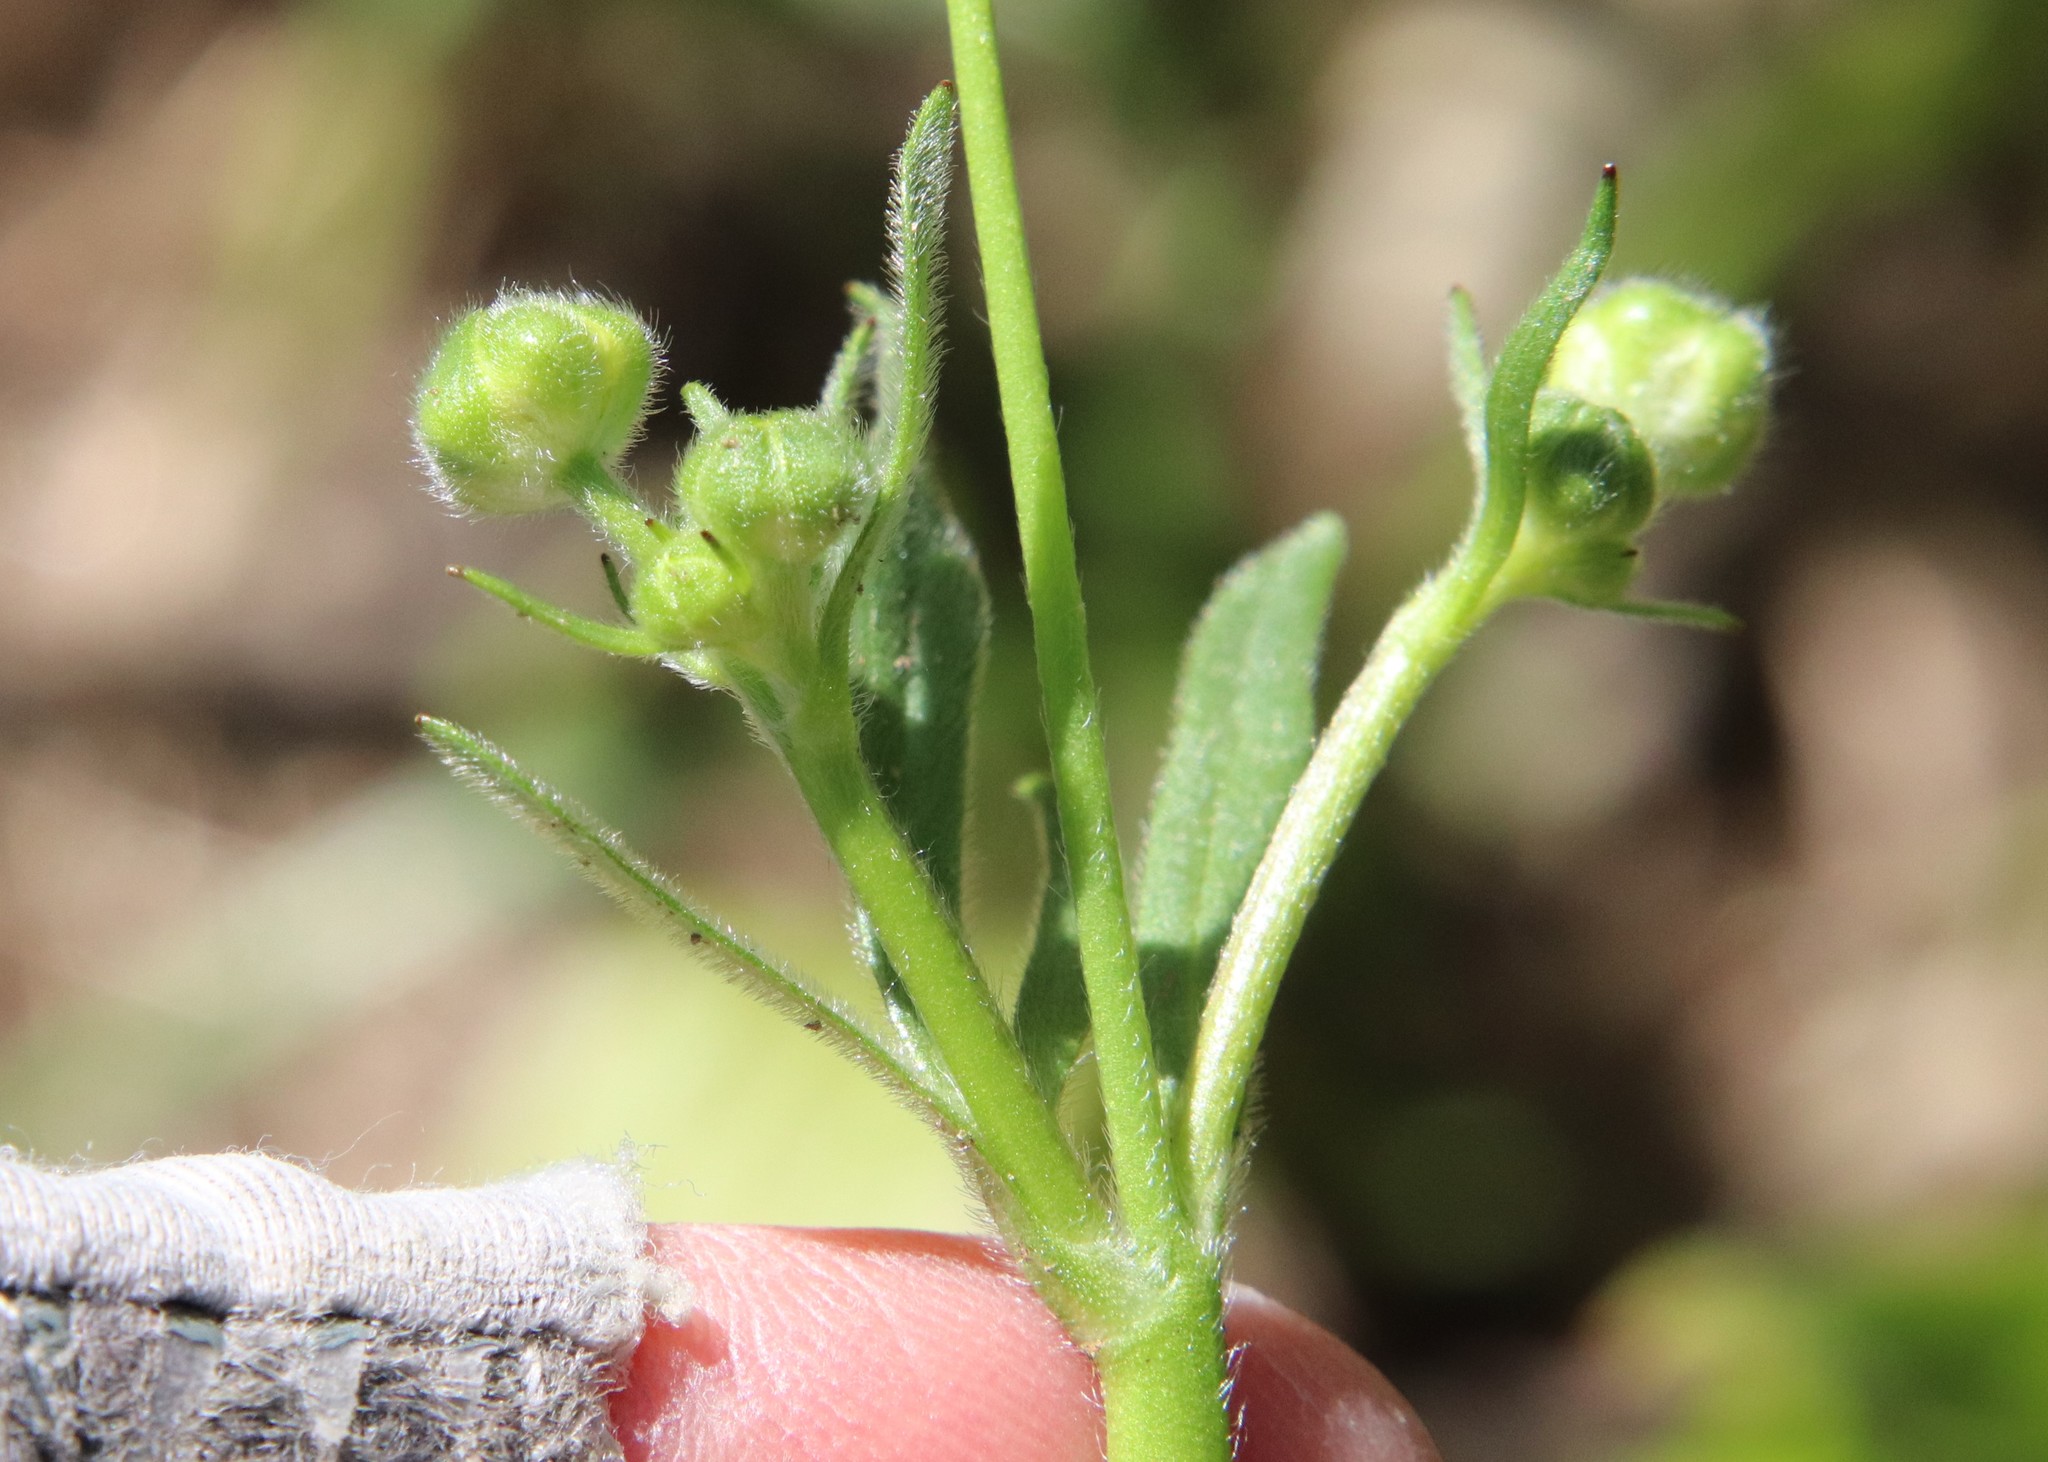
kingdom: Plantae
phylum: Tracheophyta
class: Magnoliopsida
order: Ranunculales
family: Ranunculaceae
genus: Ranunculus
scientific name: Ranunculus californicus
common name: California buttercup
